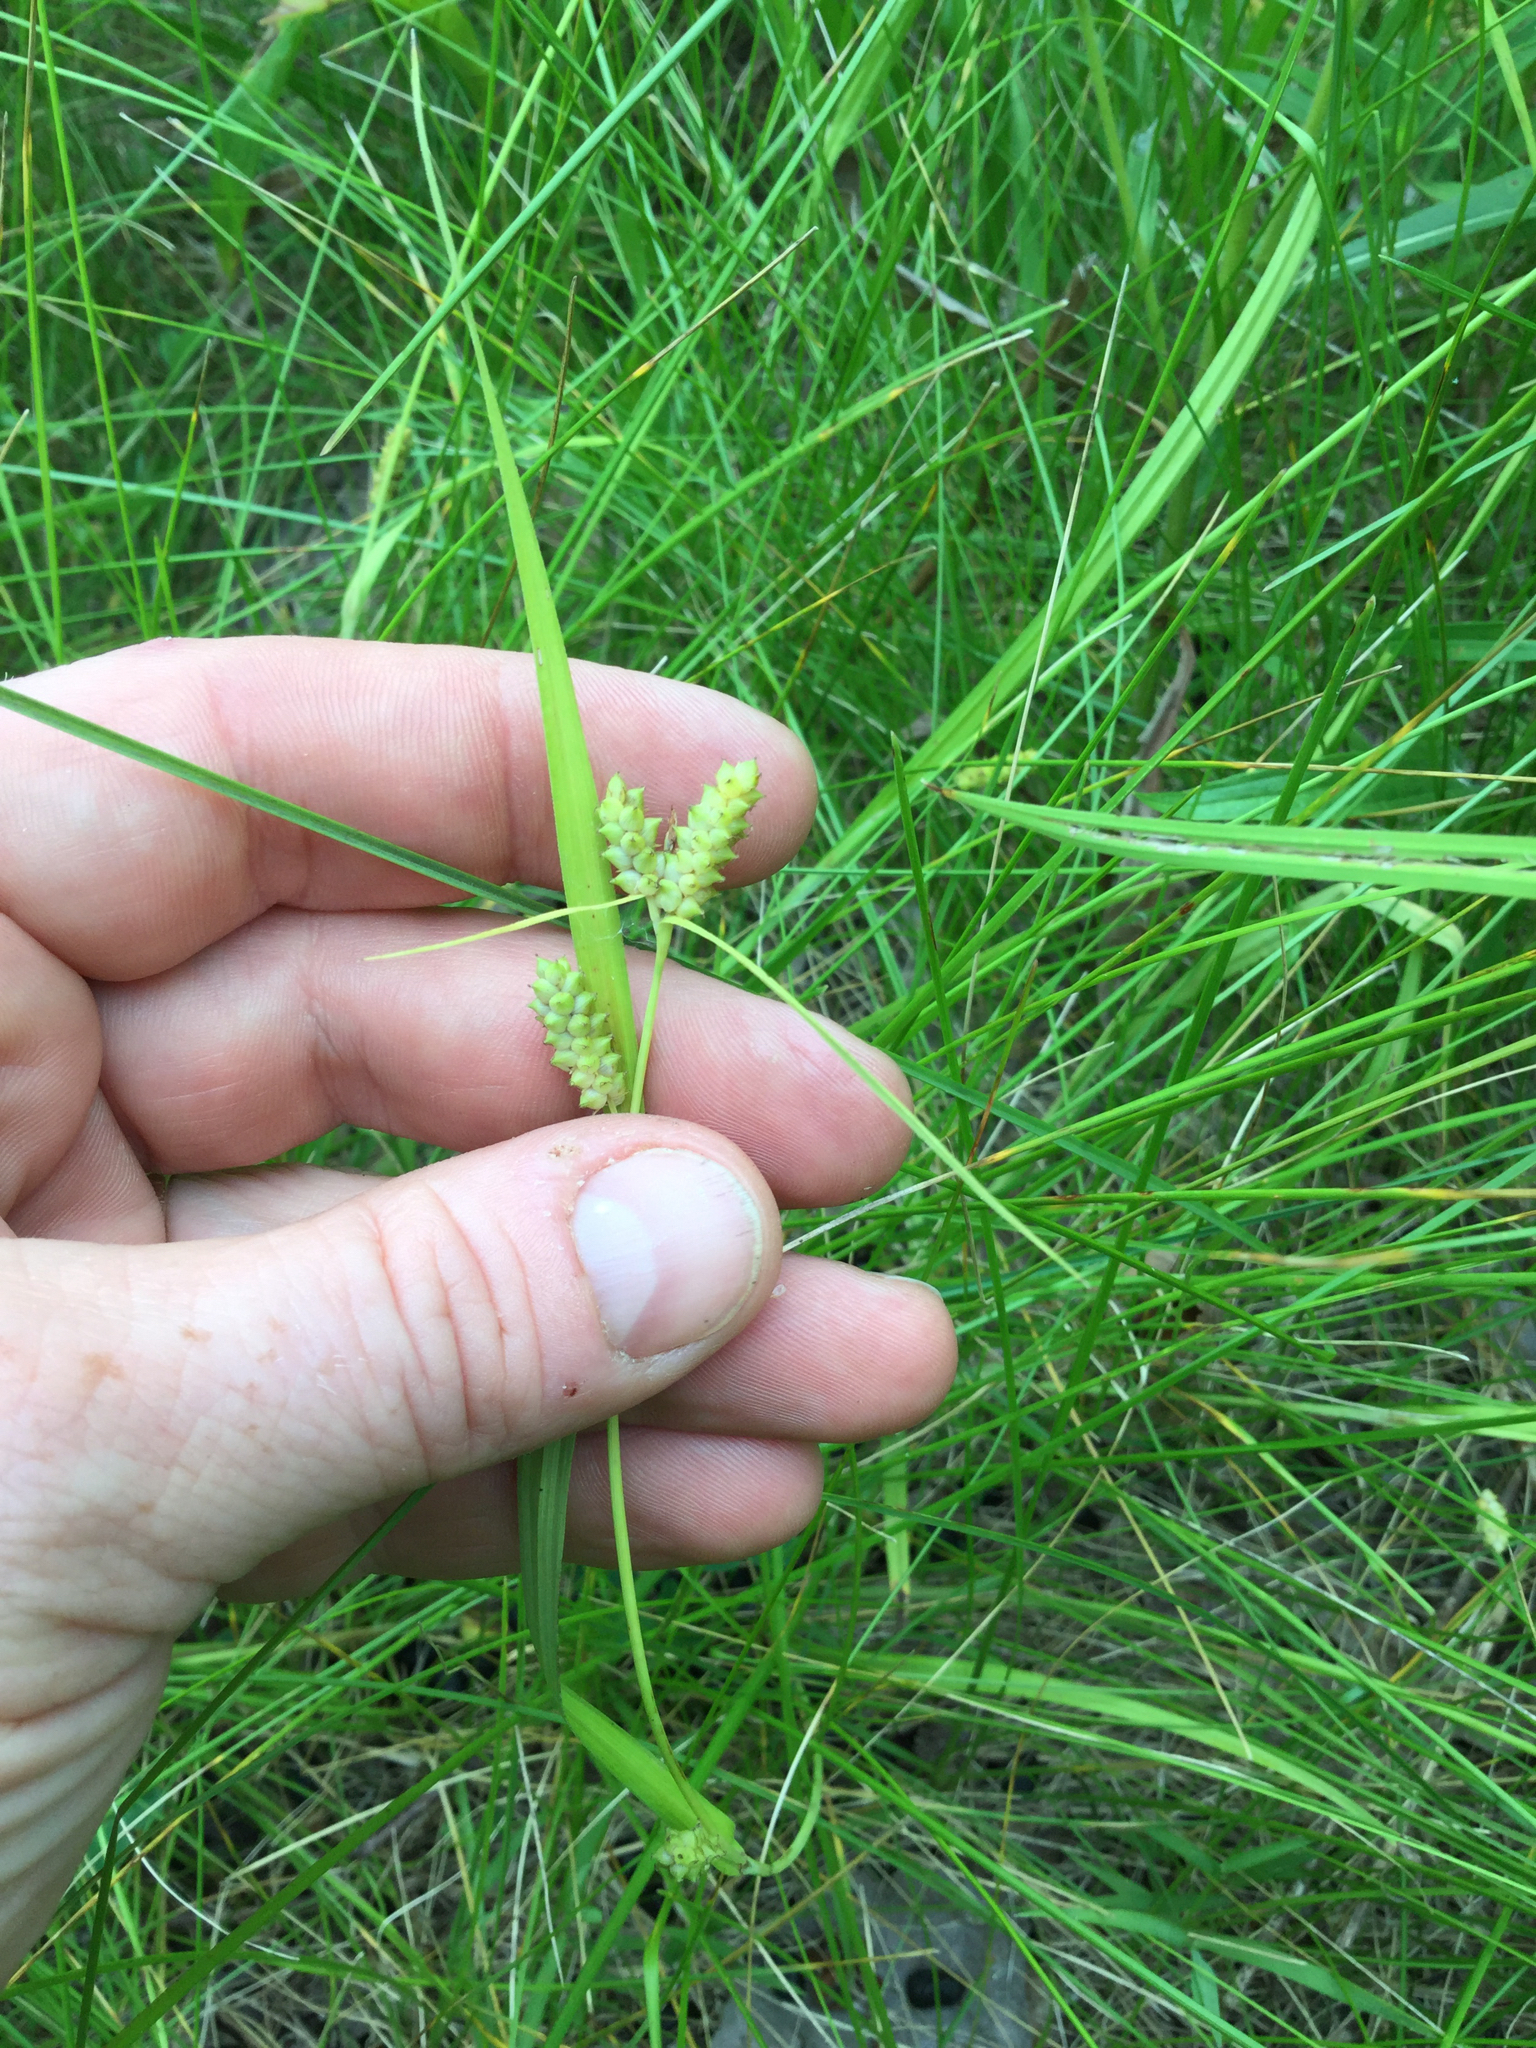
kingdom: Plantae
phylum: Tracheophyta
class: Liliopsida
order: Poales
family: Cyperaceae
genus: Carex
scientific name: Carex granularis
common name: Granular sedge
